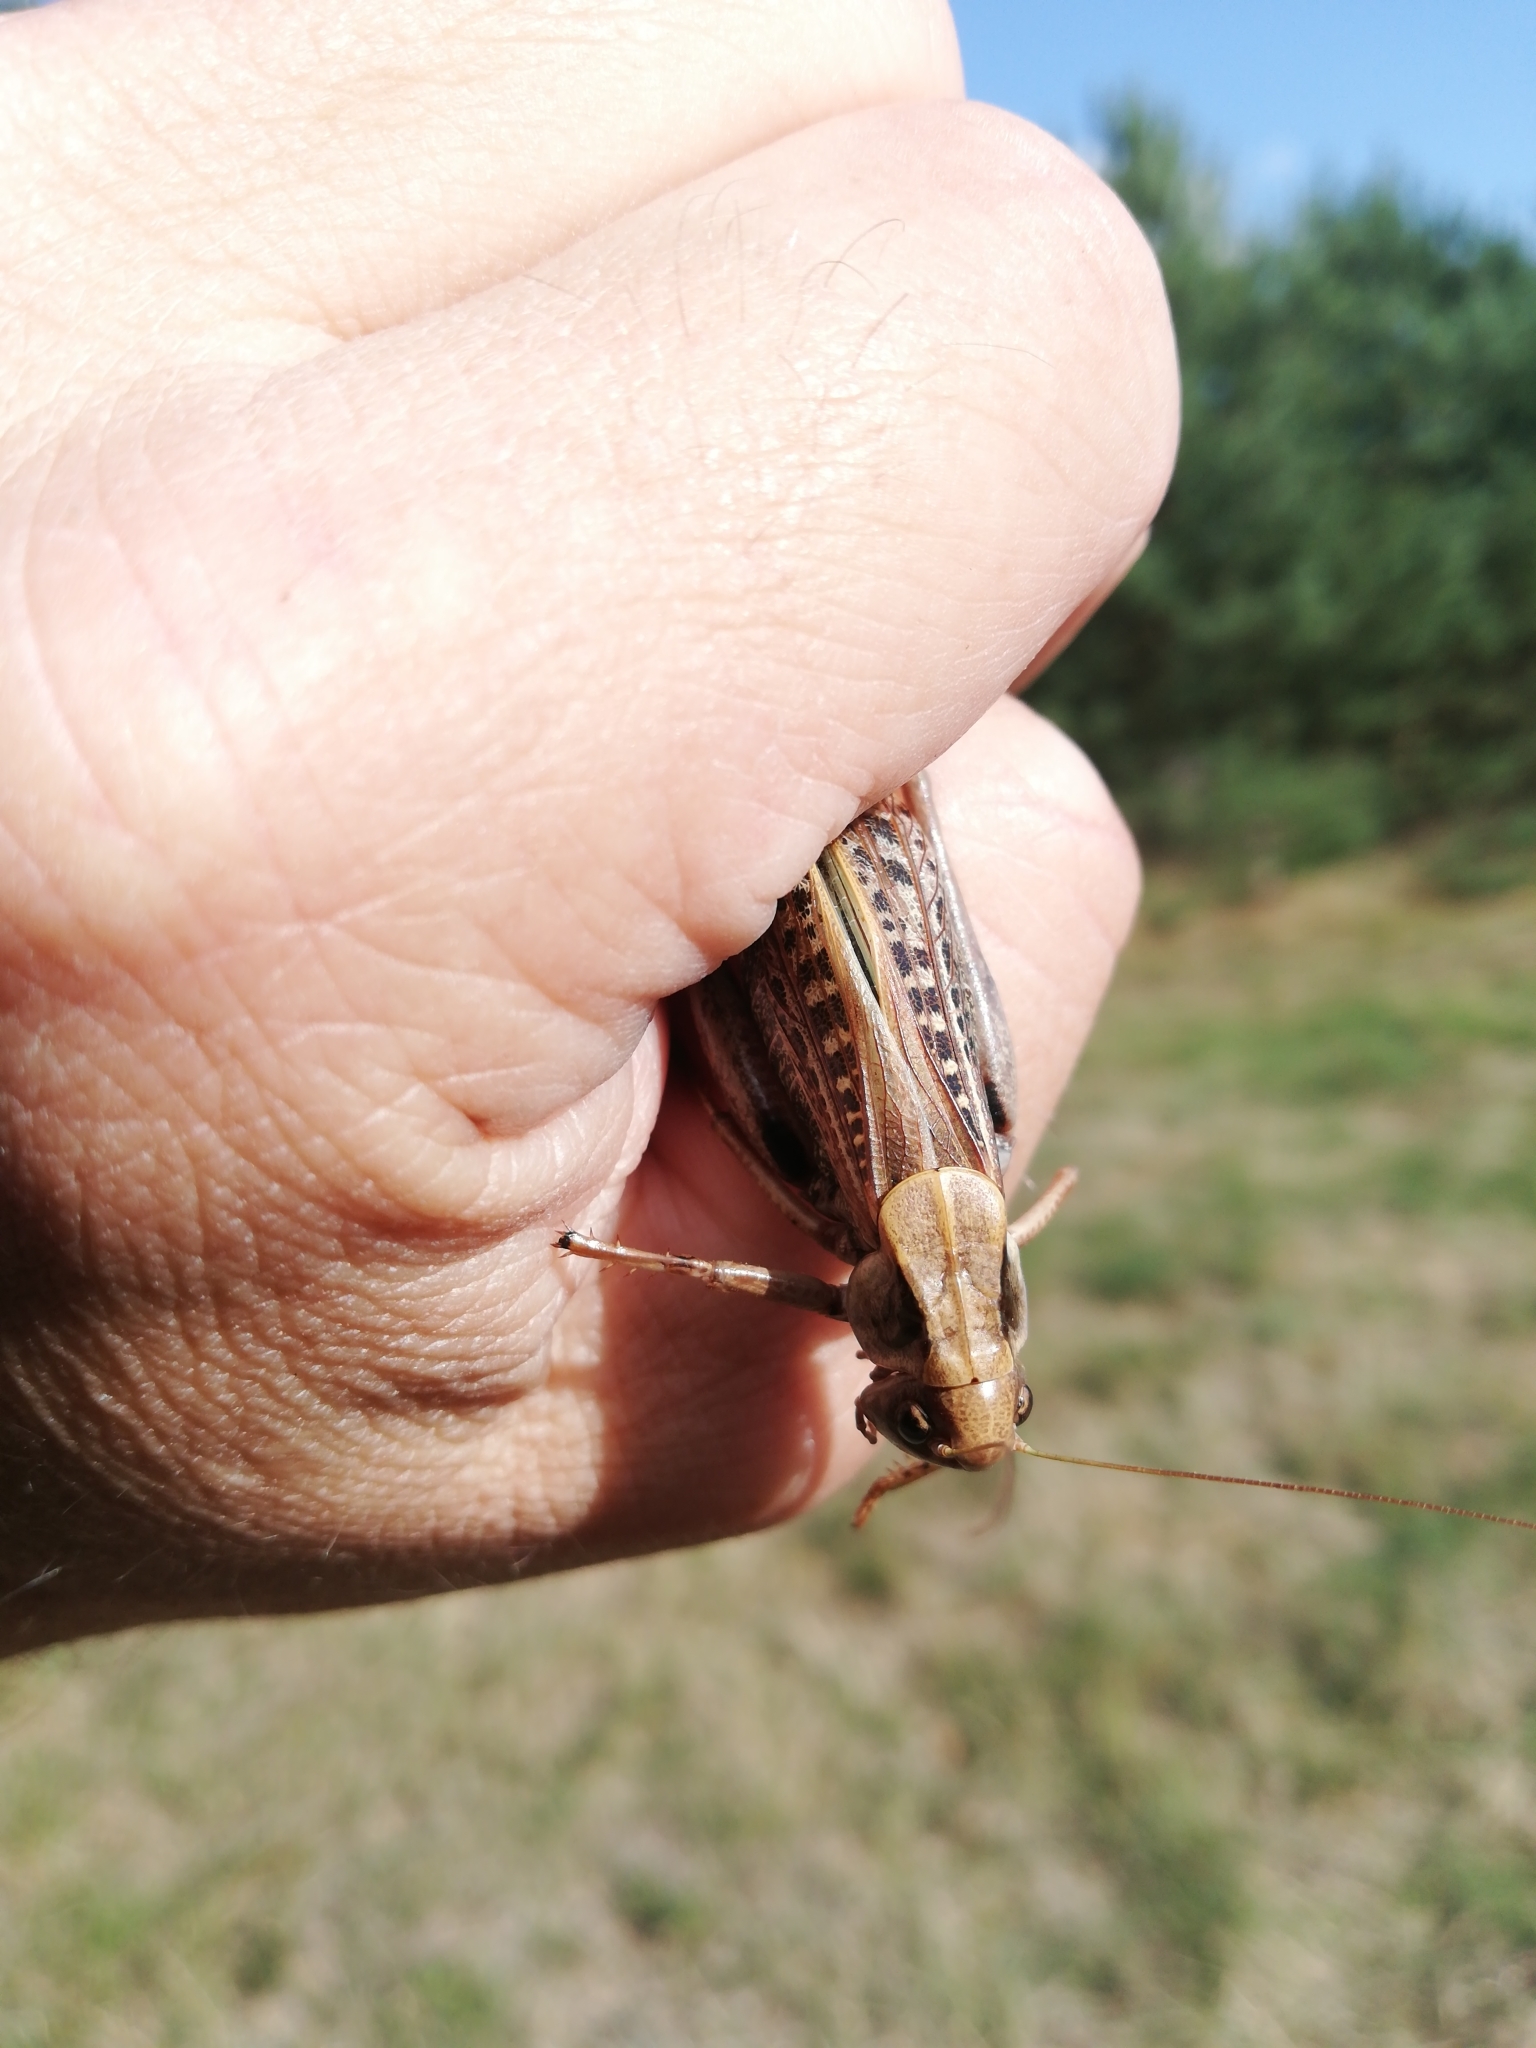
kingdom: Animalia
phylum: Arthropoda
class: Insecta
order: Orthoptera
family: Tettigoniidae
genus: Decticus
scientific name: Decticus verrucivorus
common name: Wart-biter
